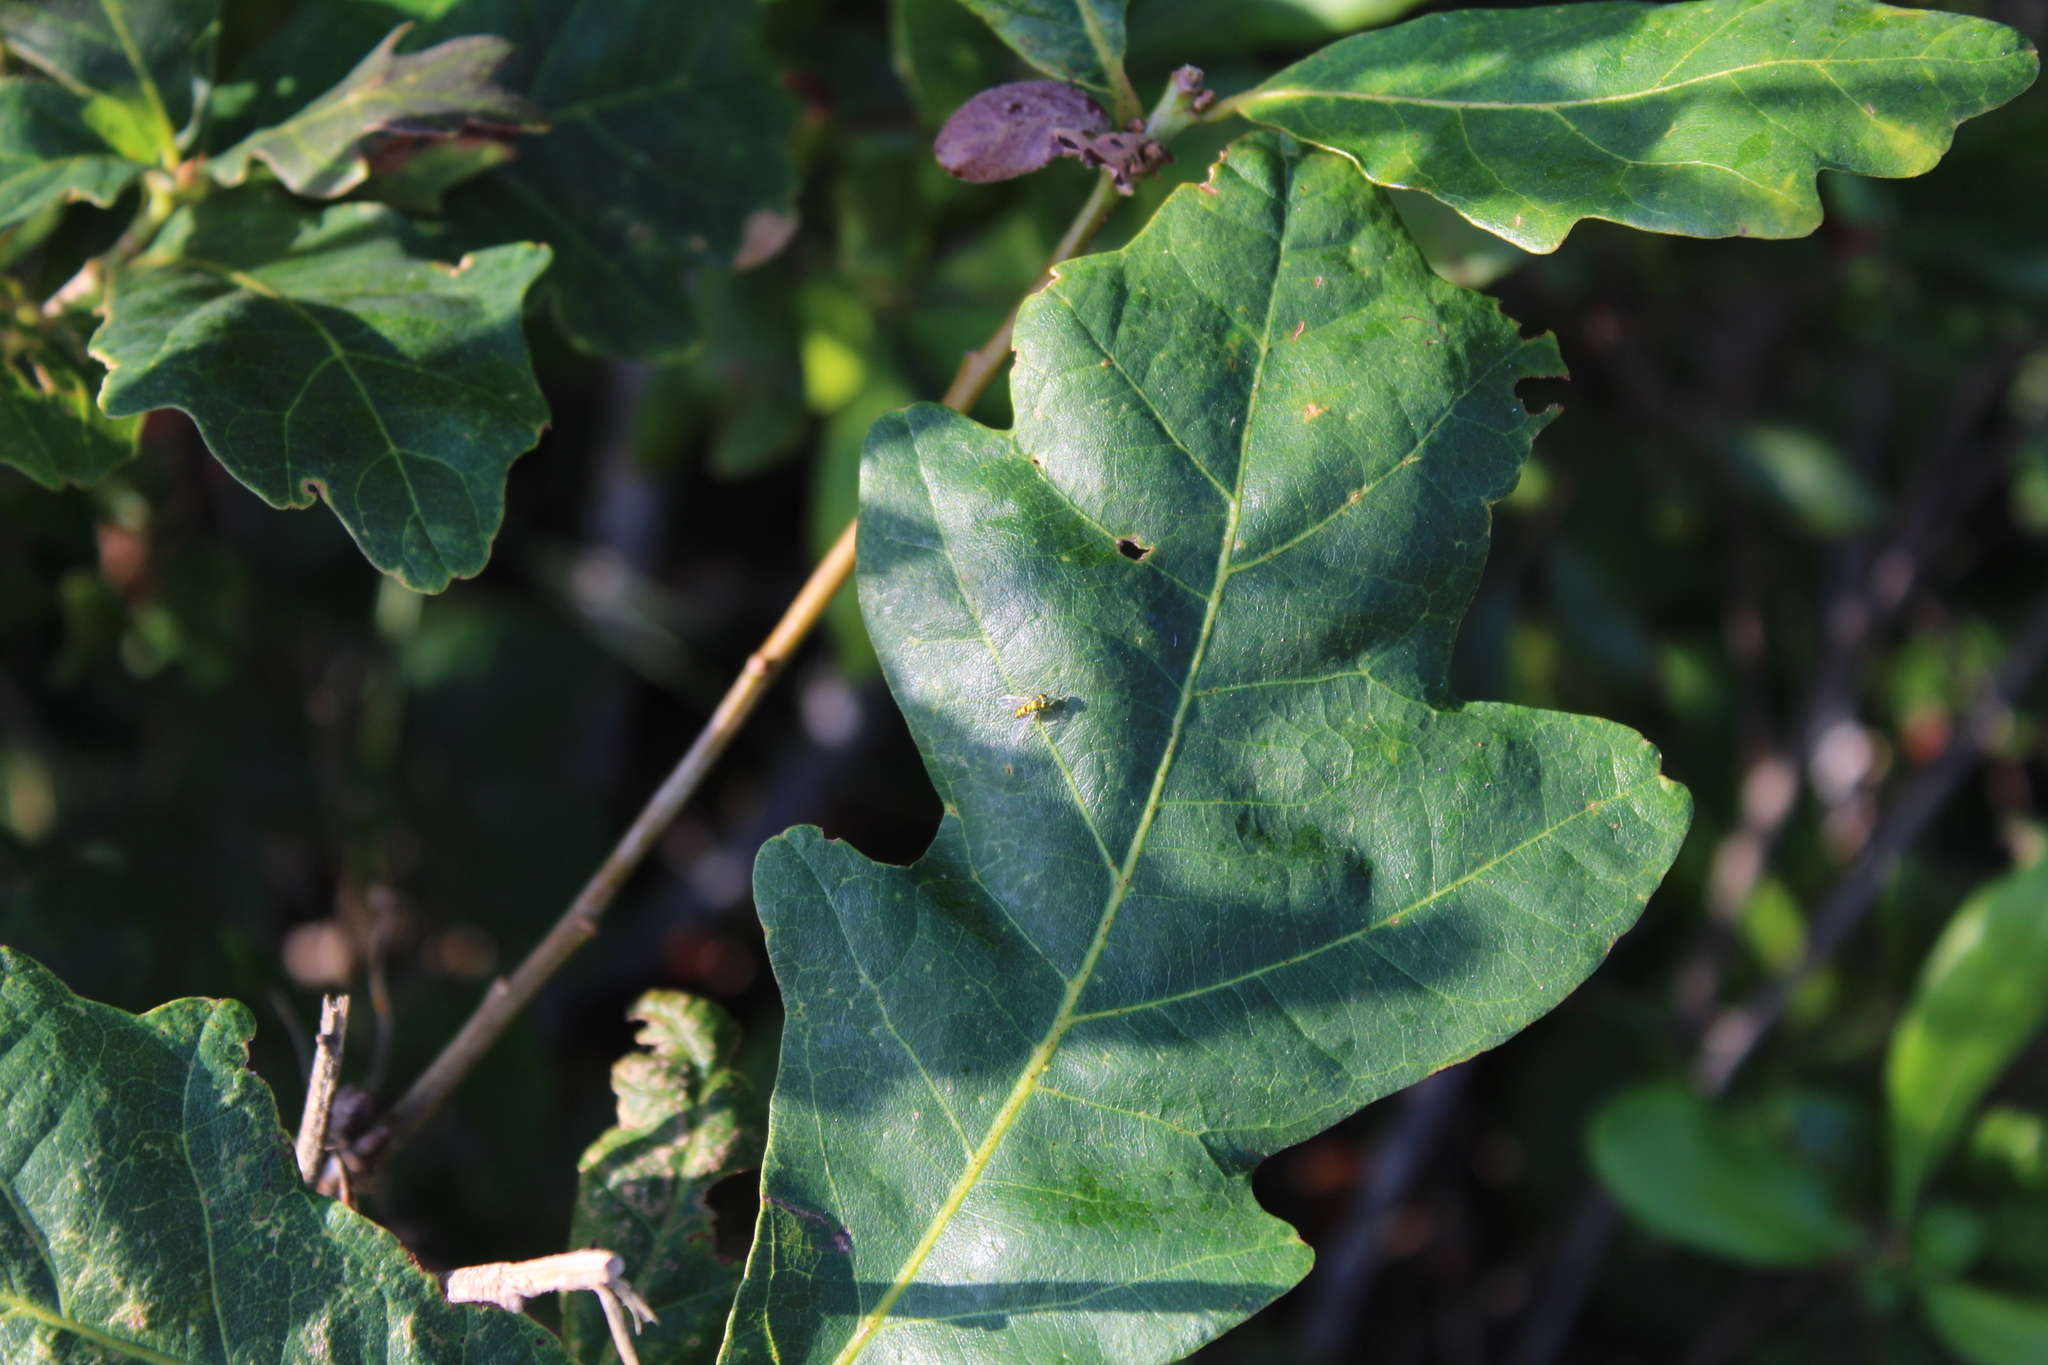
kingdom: Animalia
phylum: Arthropoda
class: Insecta
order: Diptera
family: Dolichopodidae
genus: Condylostylus
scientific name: Condylostylus
